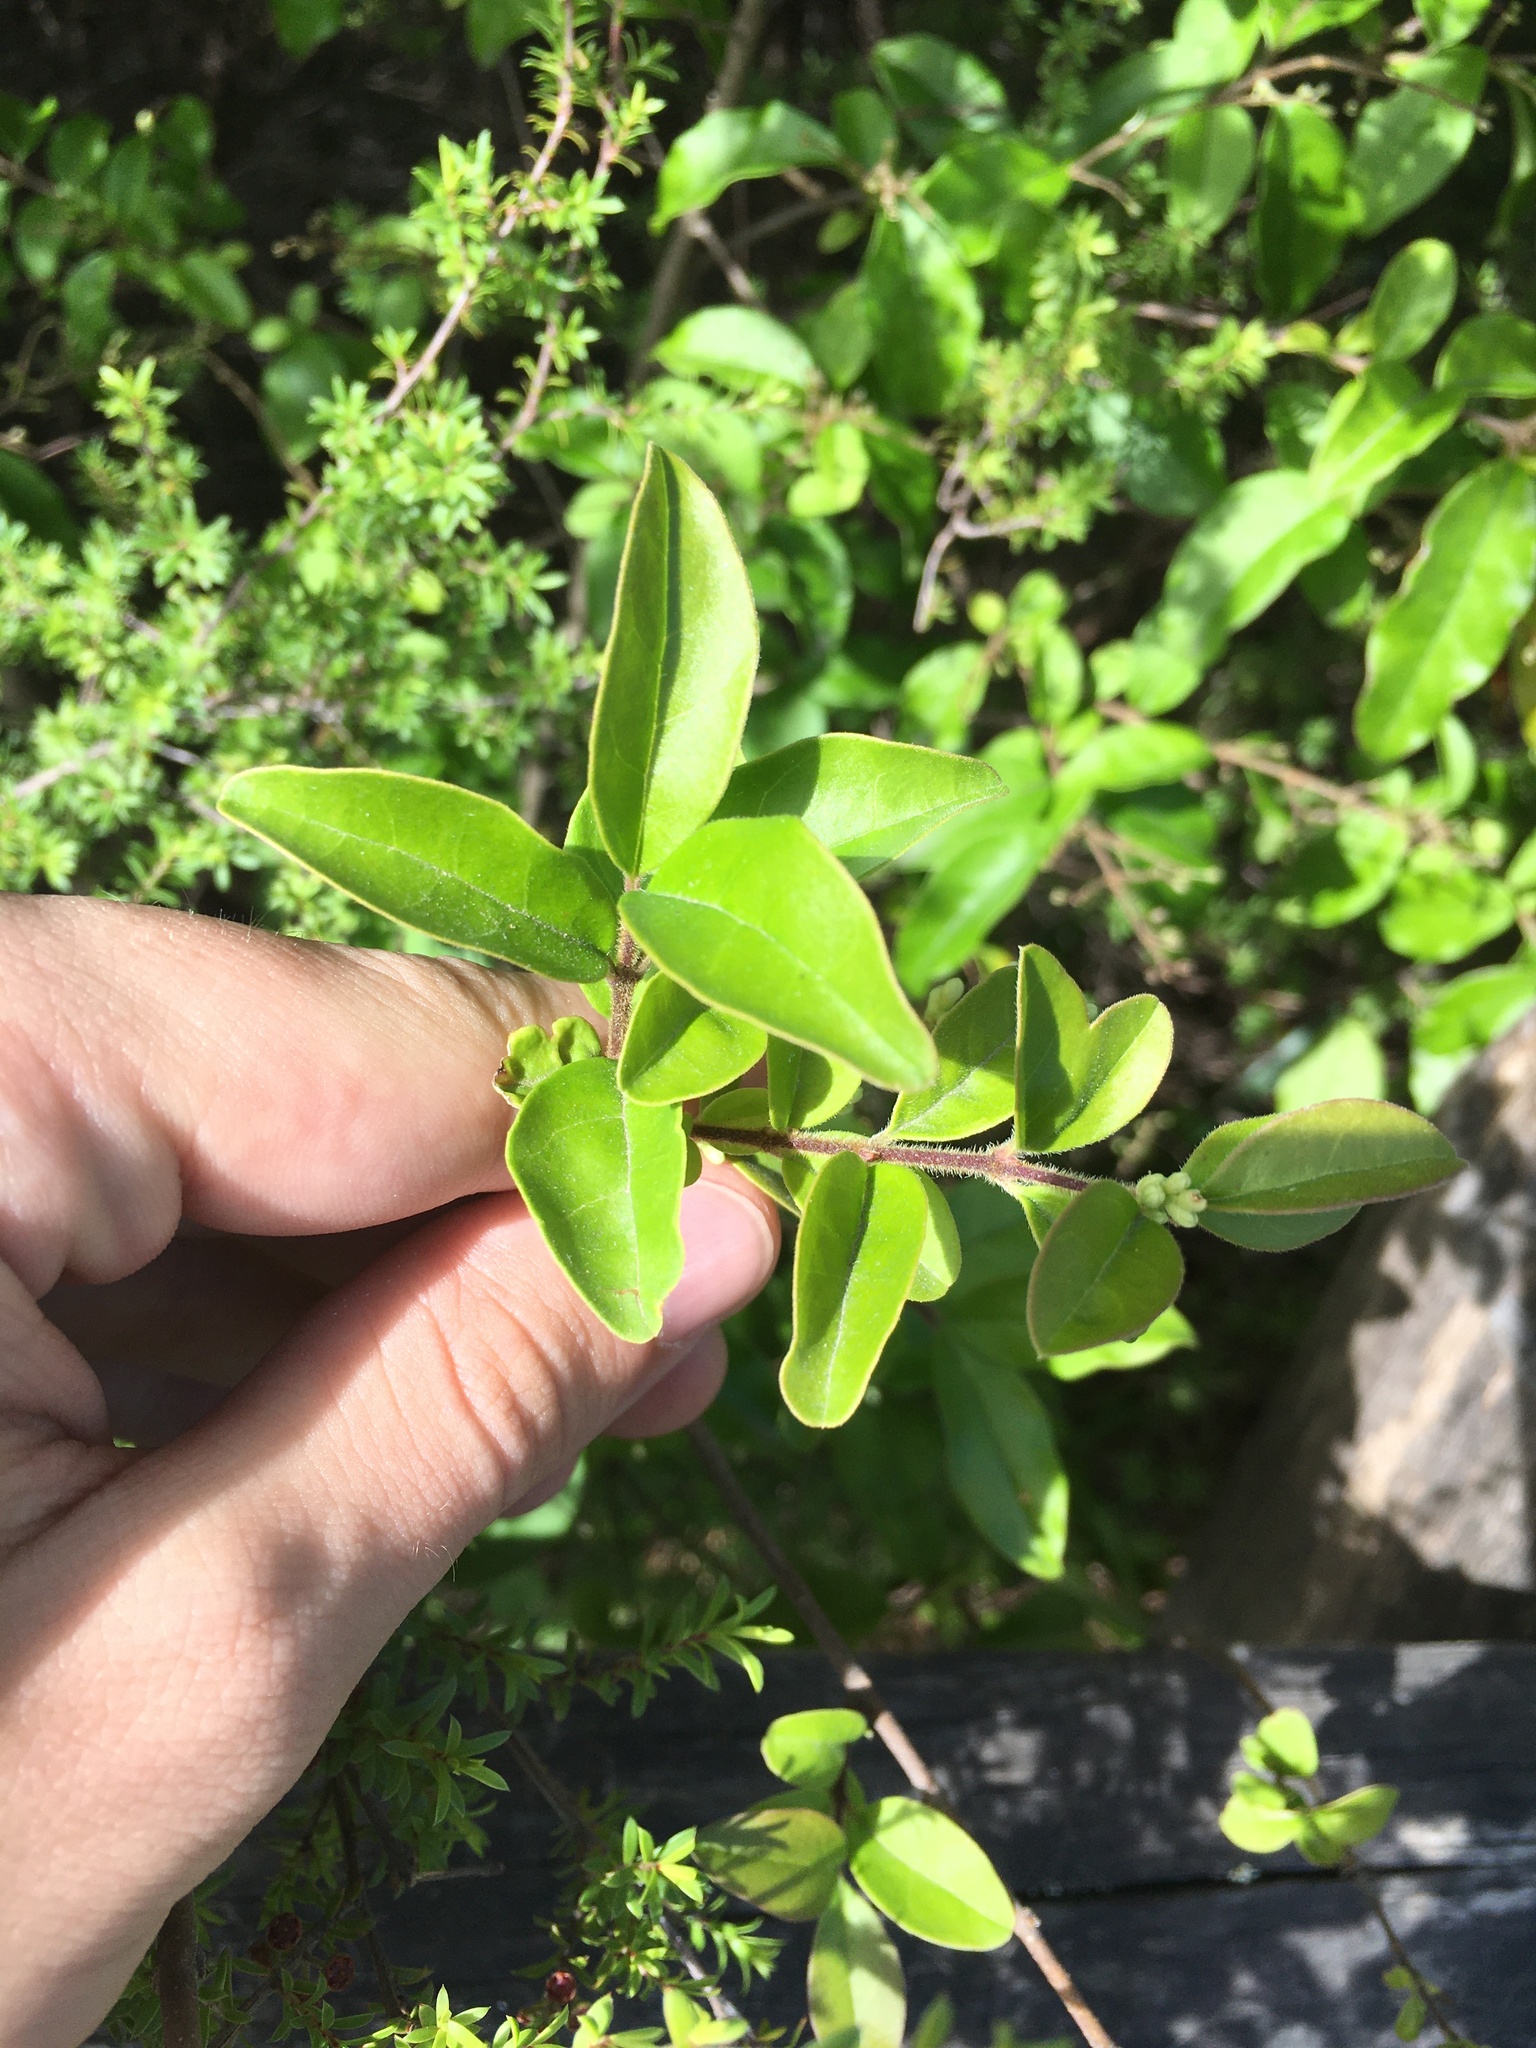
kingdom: Plantae
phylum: Tracheophyta
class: Magnoliopsida
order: Lamiales
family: Oleaceae
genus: Ligustrum
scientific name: Ligustrum sinense
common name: Chinese privet
